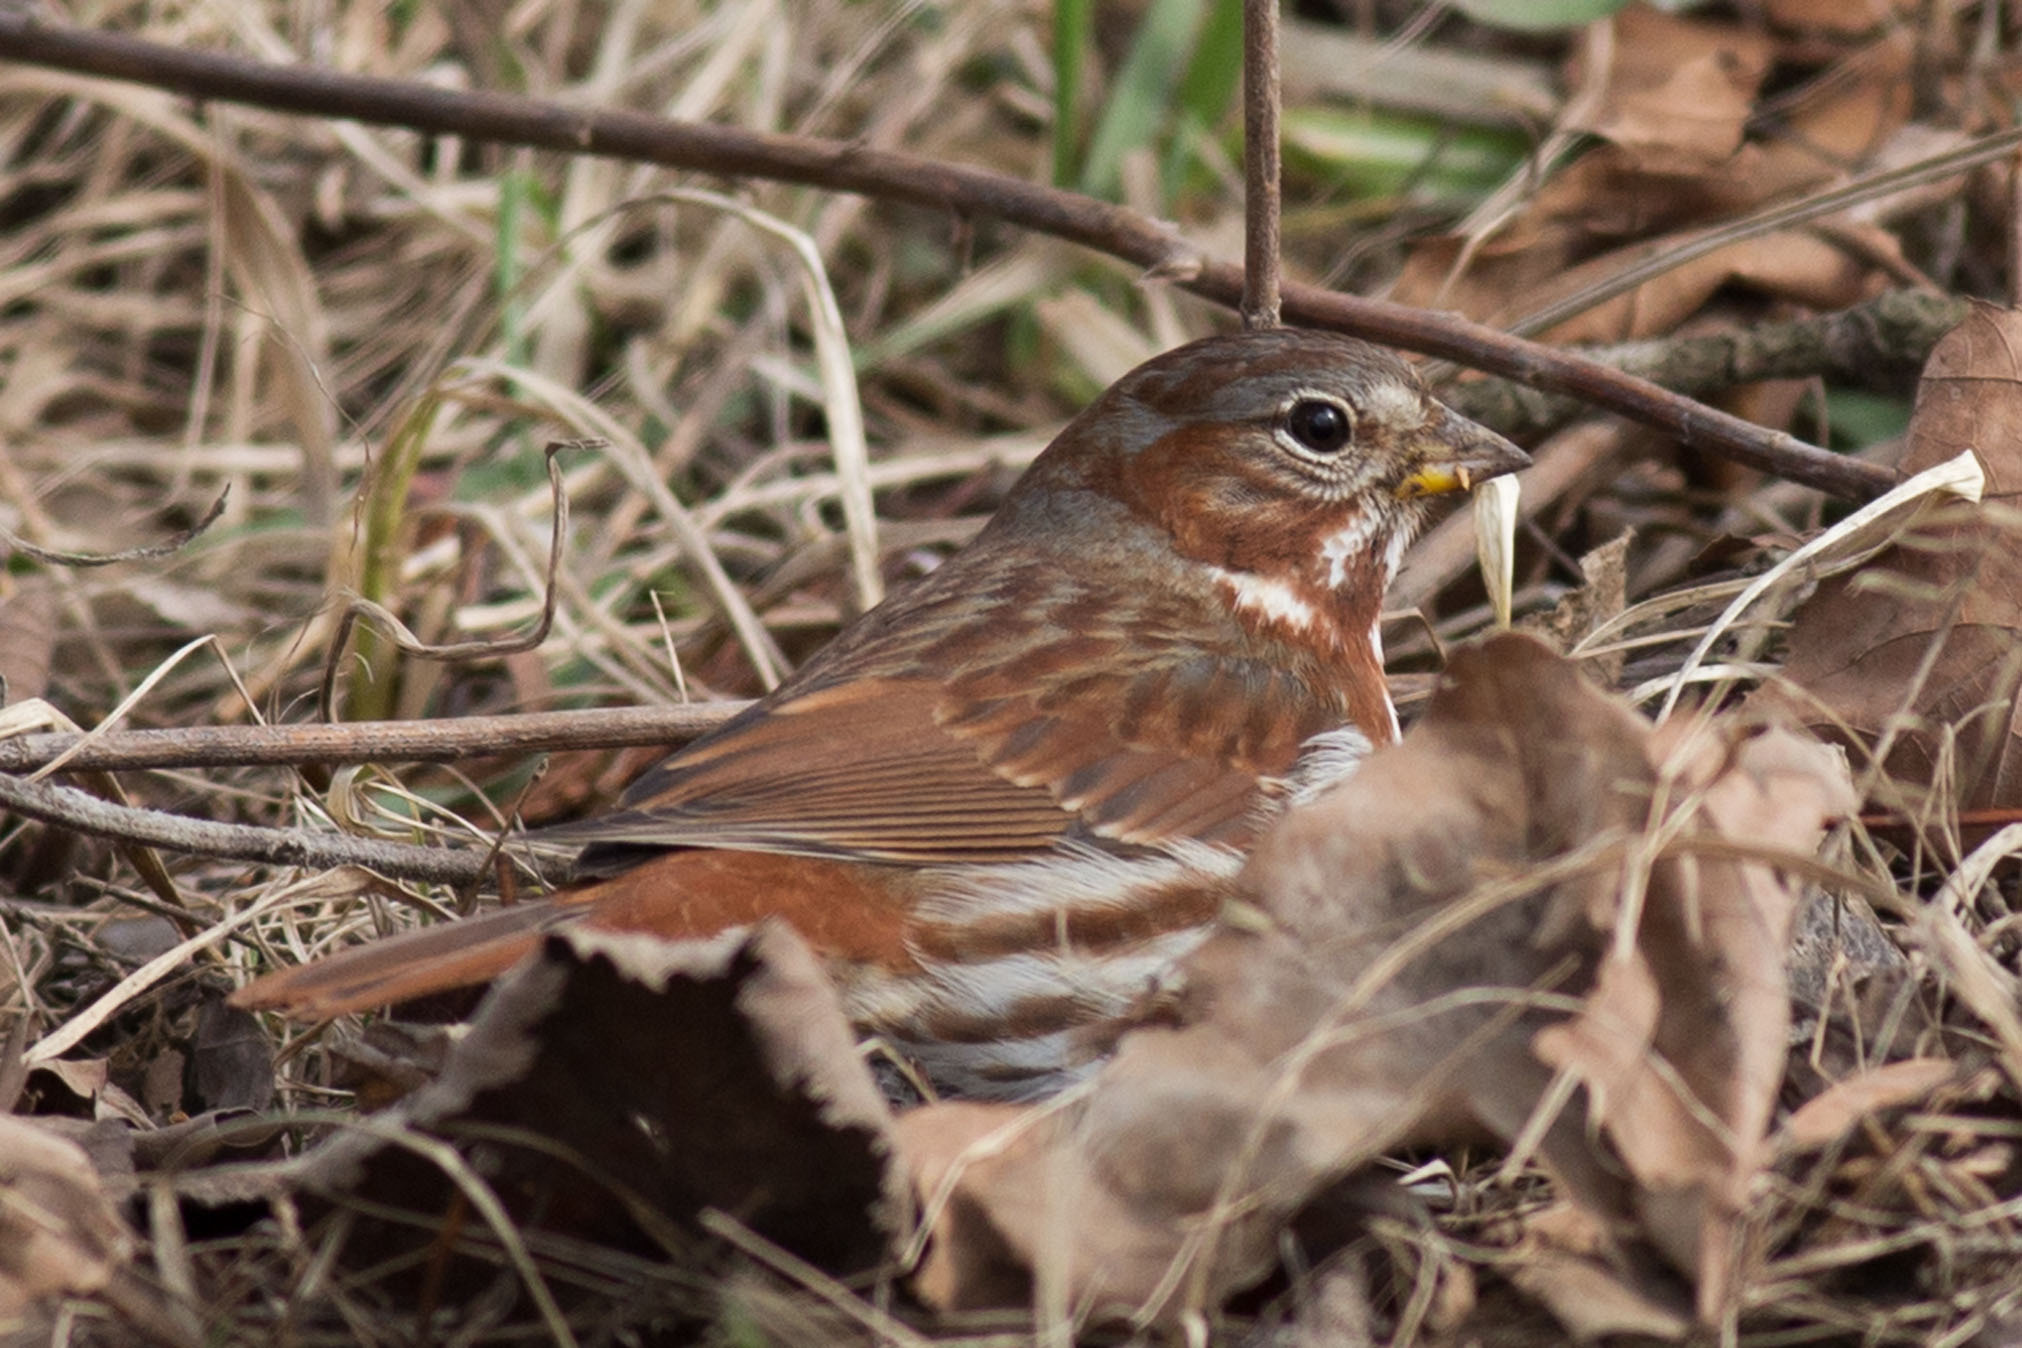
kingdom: Animalia
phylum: Chordata
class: Aves
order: Passeriformes
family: Passerellidae
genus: Passerella
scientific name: Passerella iliaca
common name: Fox sparrow
